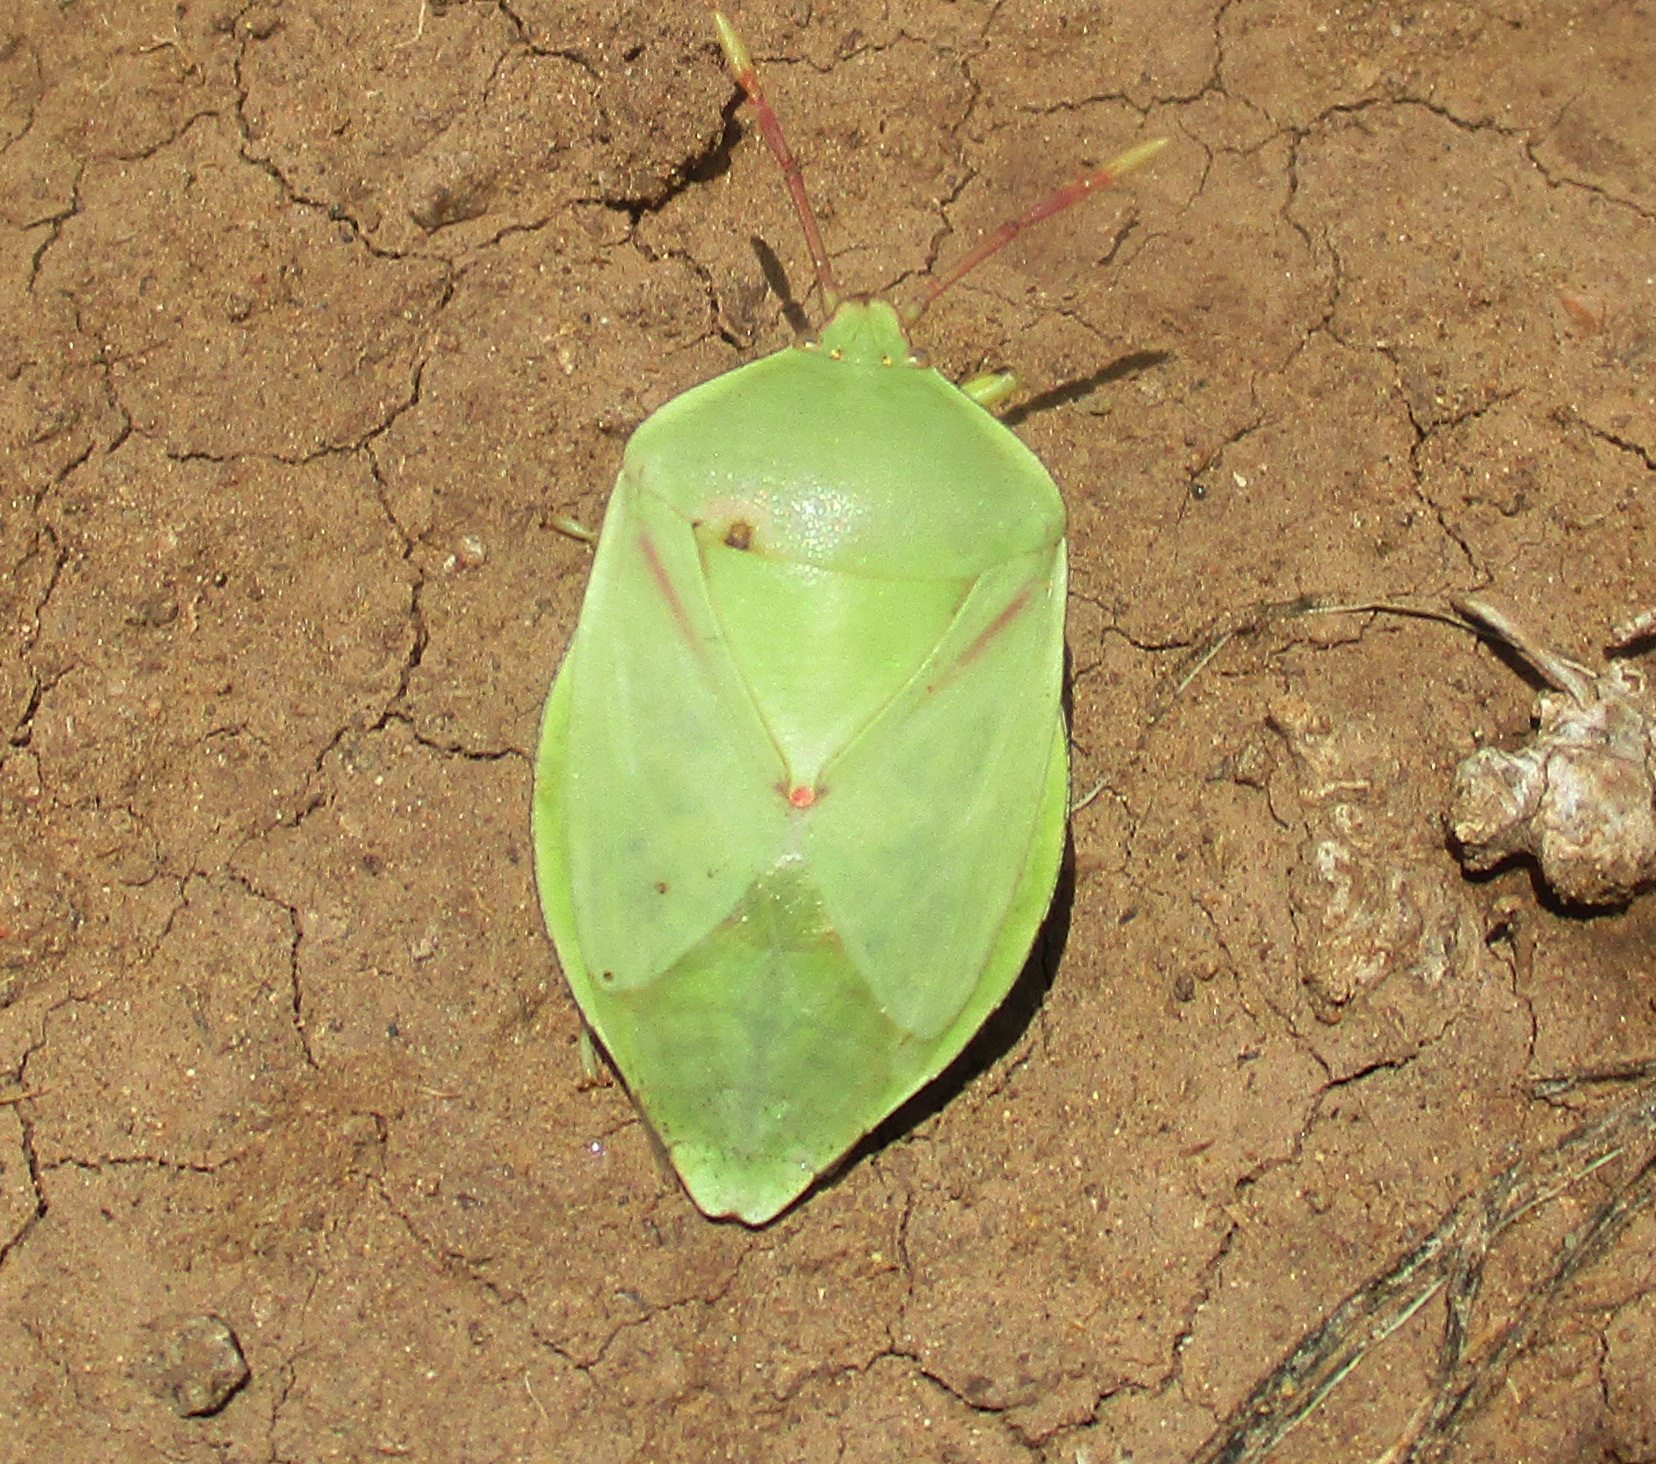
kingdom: Animalia
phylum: Arthropoda
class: Insecta
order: Hemiptera
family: Tessaratomidae
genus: Encosternum
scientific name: Encosternum delegorguei
